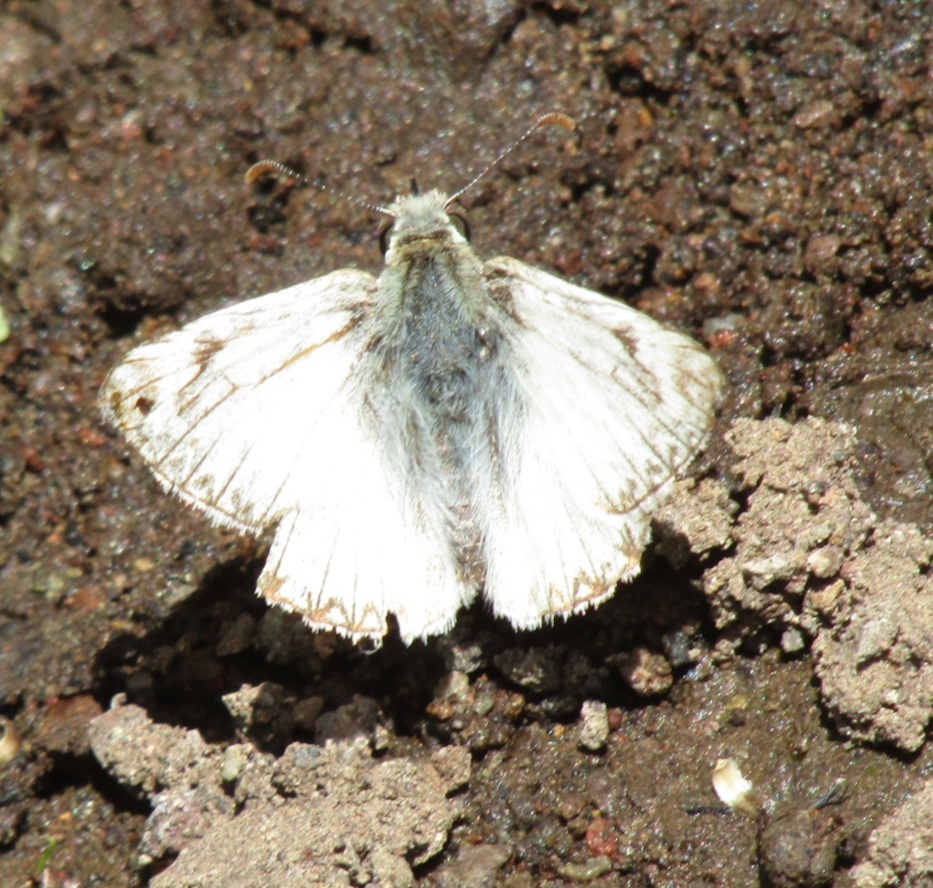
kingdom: Animalia
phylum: Arthropoda
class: Insecta
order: Lepidoptera
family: Hesperiidae
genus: Heliopetes
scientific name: Heliopetes ericetorum
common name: Northern white-skipper
